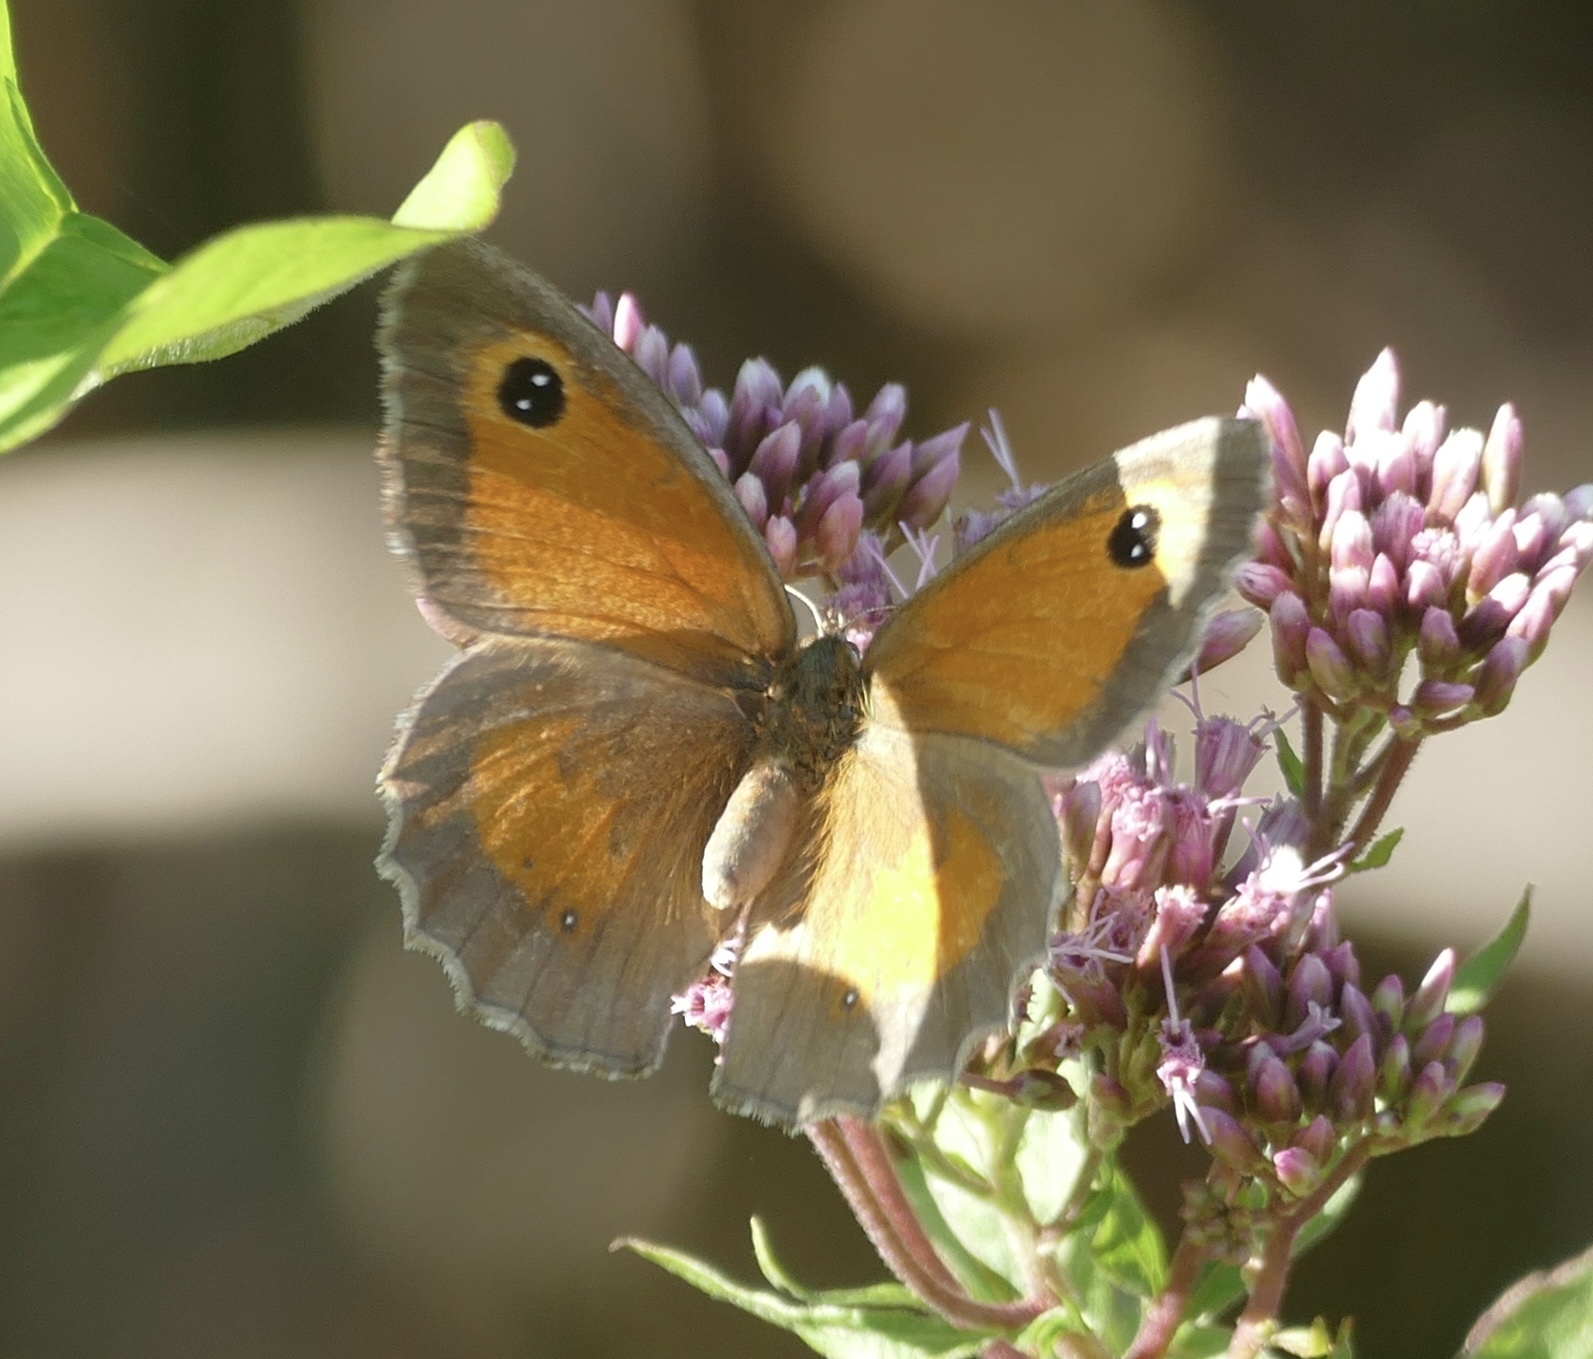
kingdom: Animalia
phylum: Arthropoda
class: Insecta
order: Lepidoptera
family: Nymphalidae
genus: Pyronia
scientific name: Pyronia tithonus
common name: Gatekeeper
